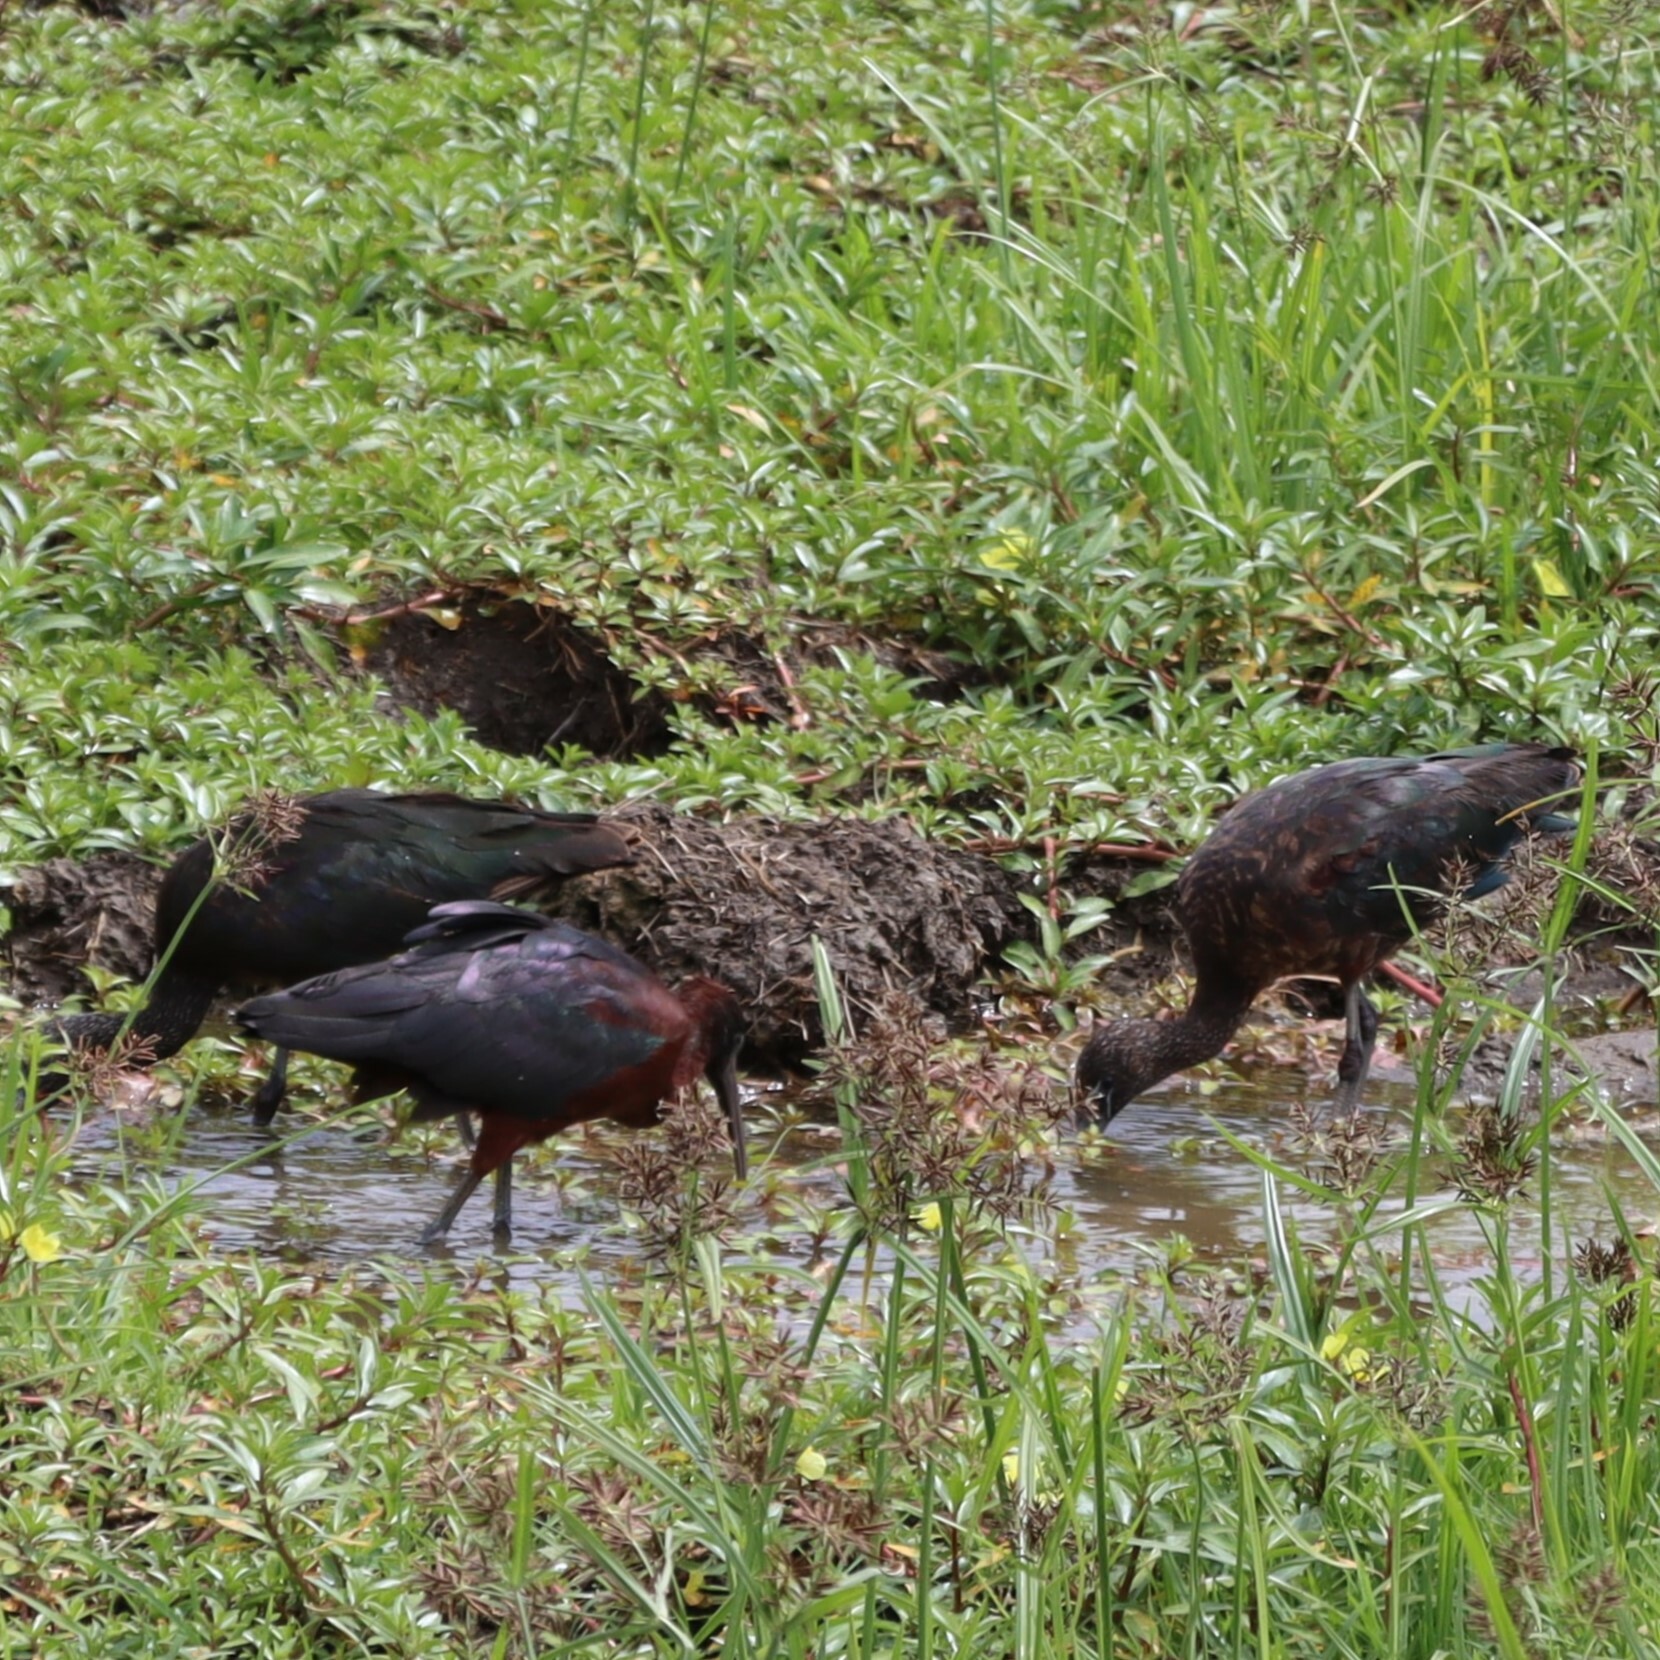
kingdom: Animalia
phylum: Chordata
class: Aves
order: Pelecaniformes
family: Threskiornithidae
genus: Plegadis
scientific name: Plegadis falcinellus
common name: Glossy ibis
